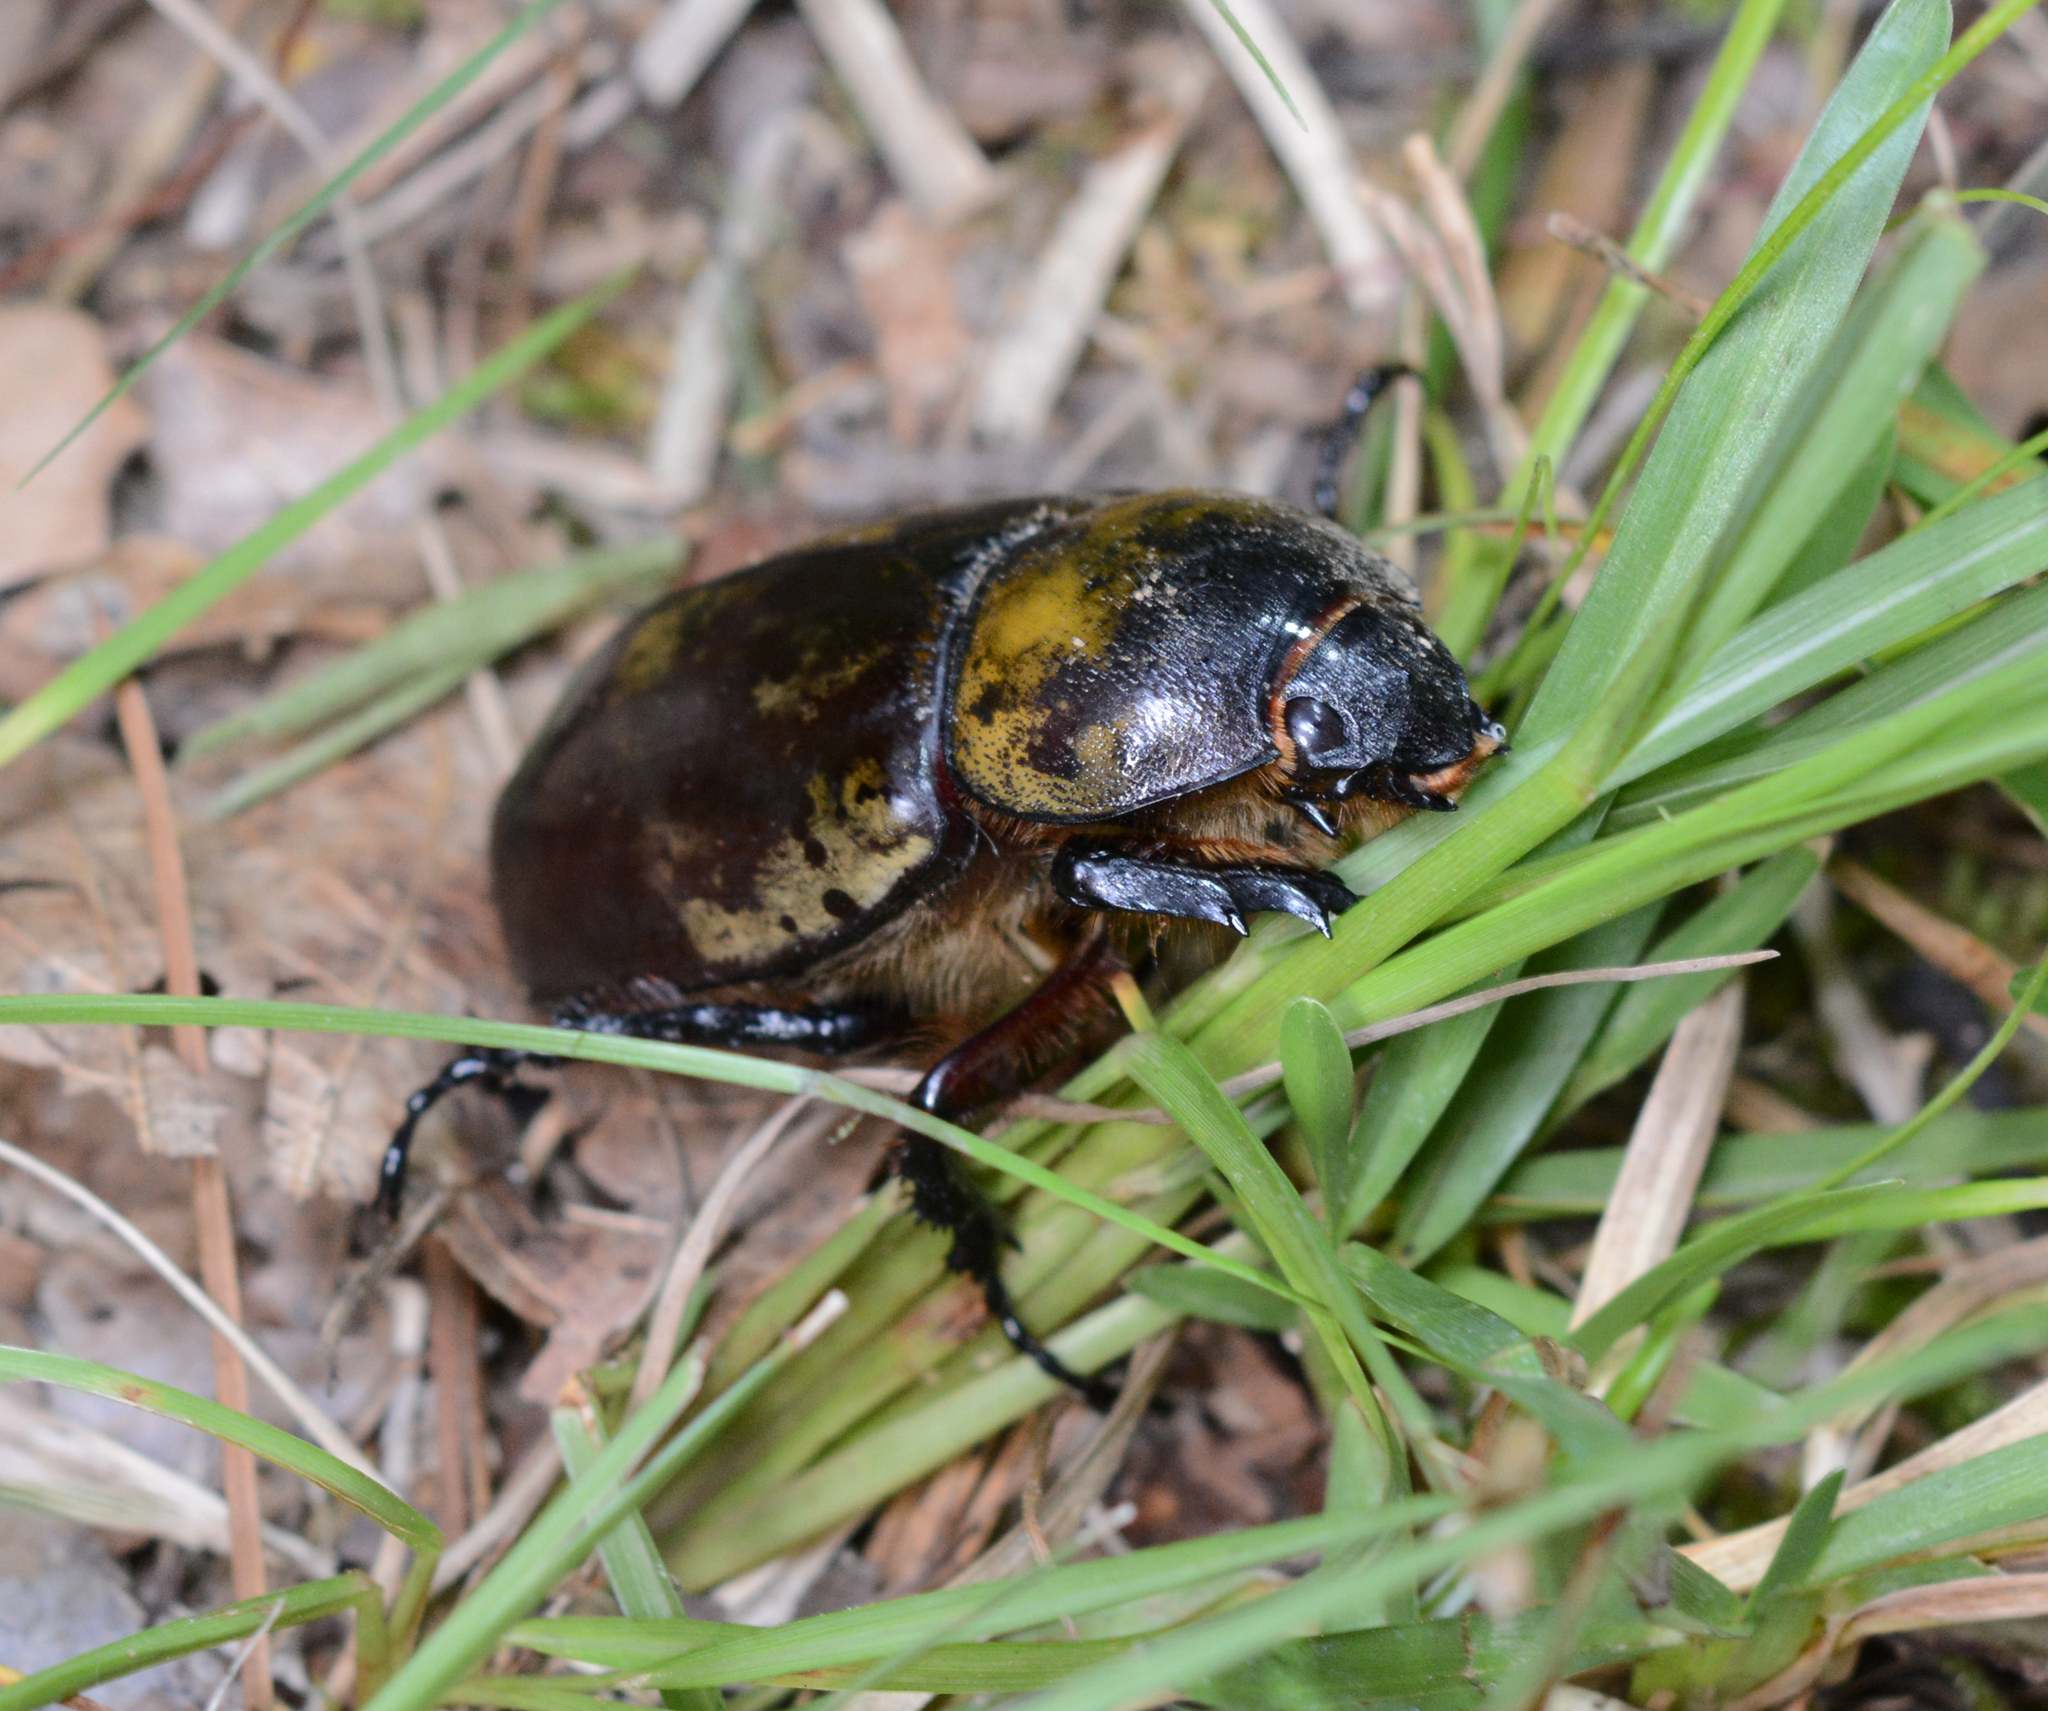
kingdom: Animalia
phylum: Arthropoda
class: Insecta
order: Coleoptera
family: Scarabaeidae
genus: Dynastes
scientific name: Dynastes tityus
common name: Eastern hercules beetle
